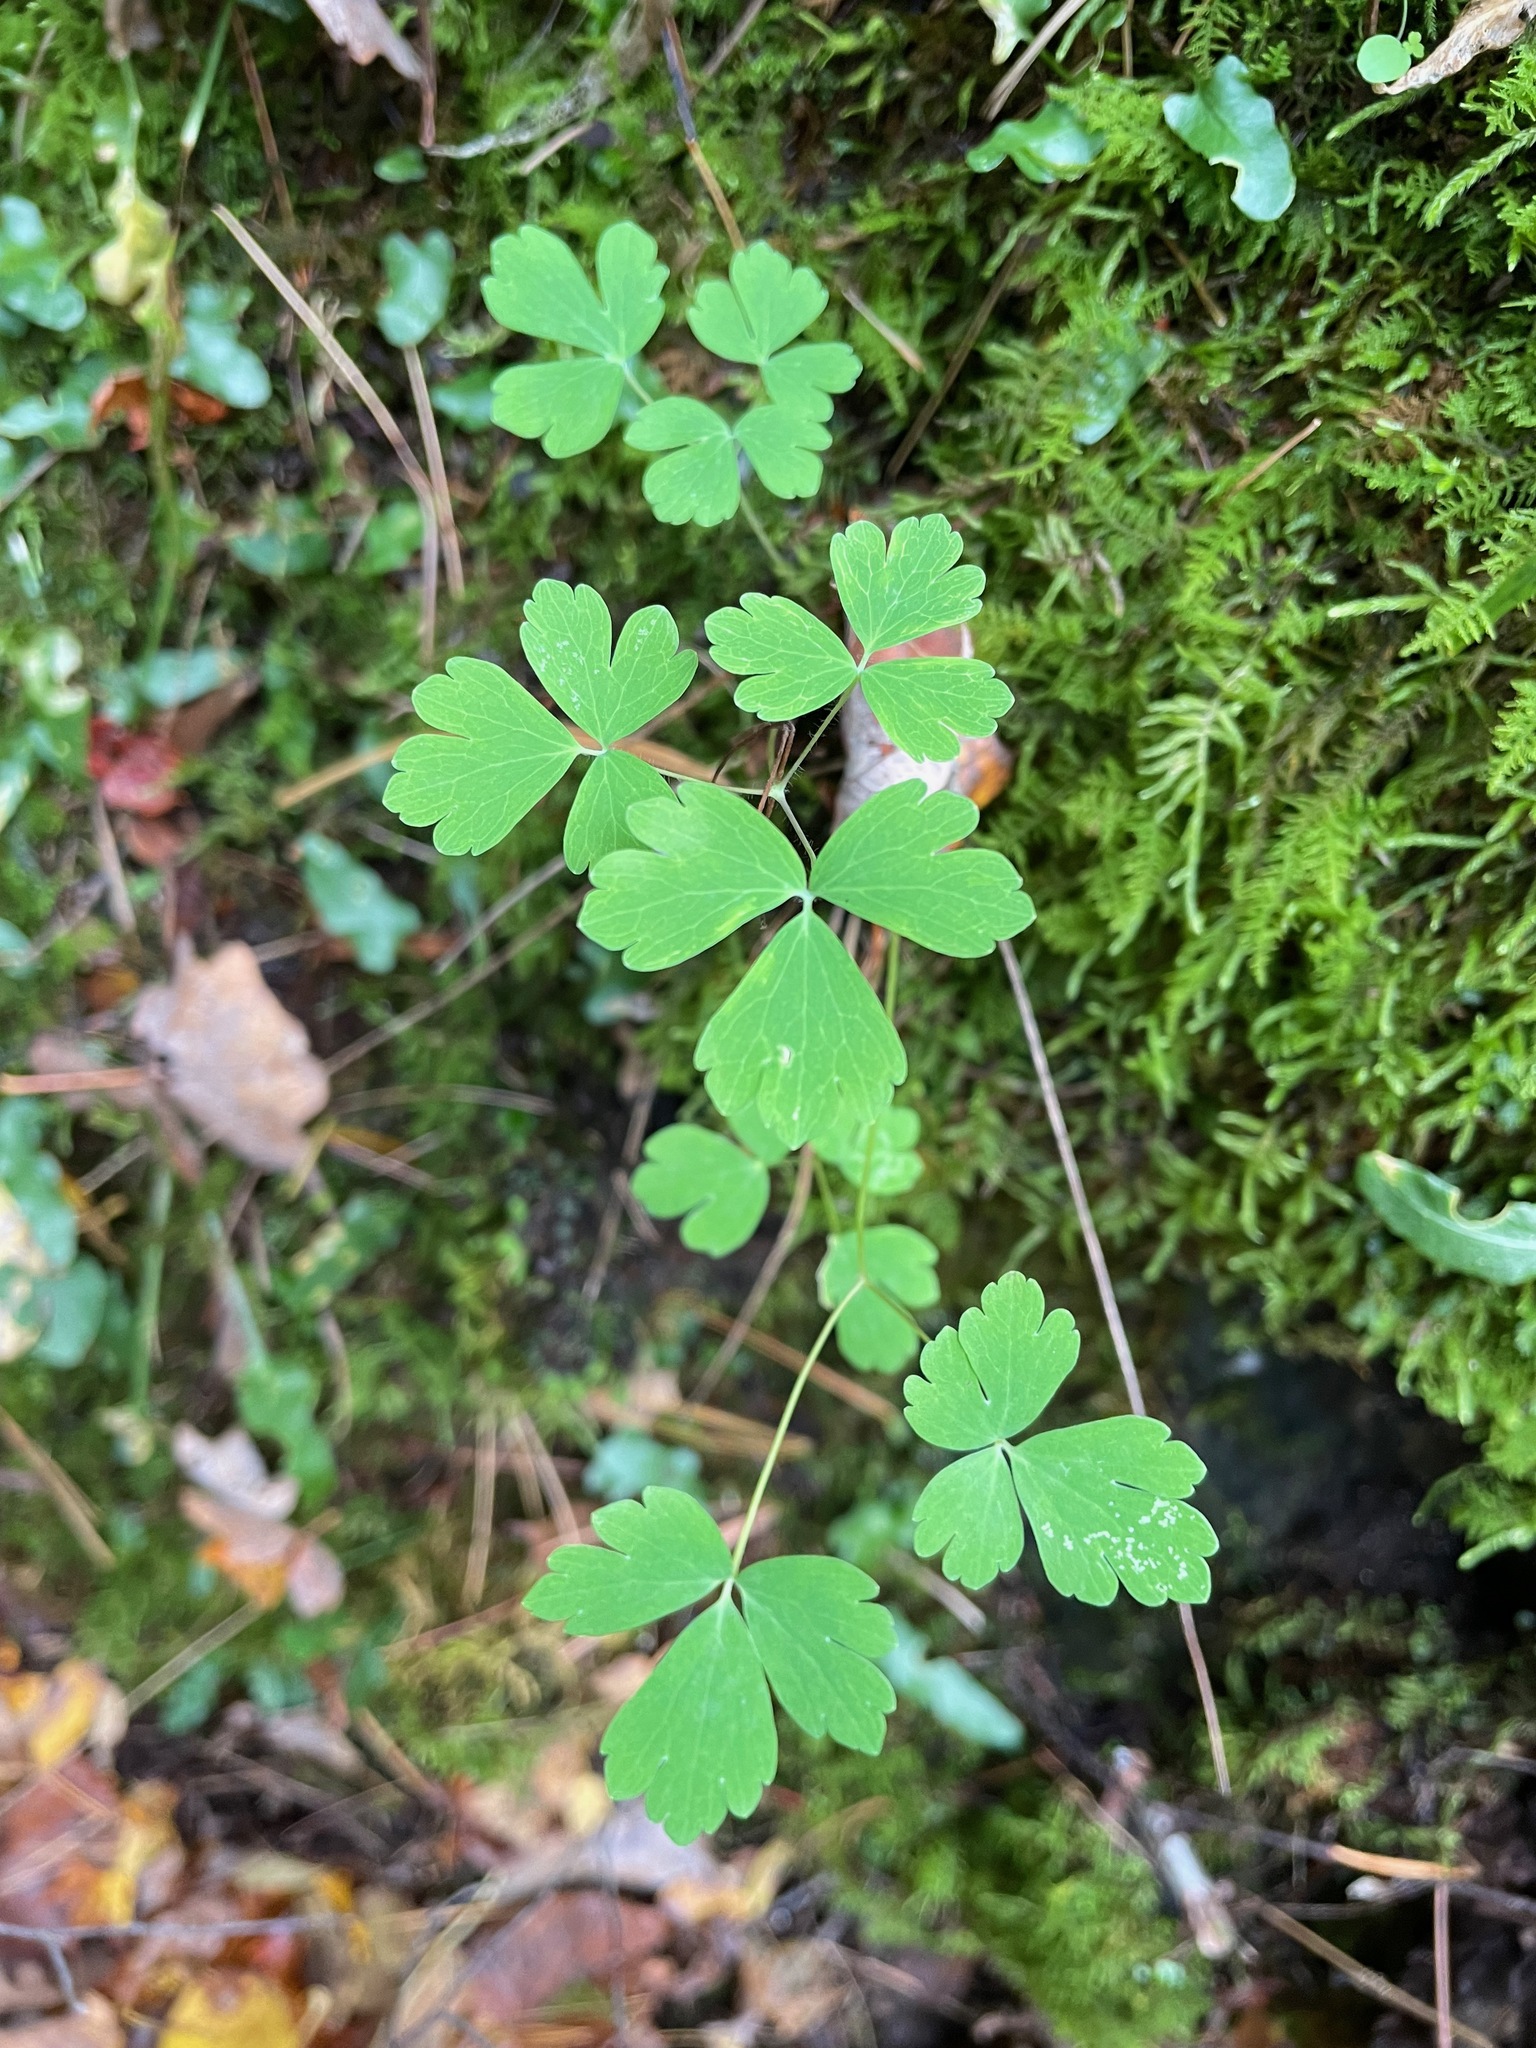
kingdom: Plantae
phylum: Tracheophyta
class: Magnoliopsida
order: Ranunculales
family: Ranunculaceae
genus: Aquilegia
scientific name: Aquilegia canadensis
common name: American columbine
